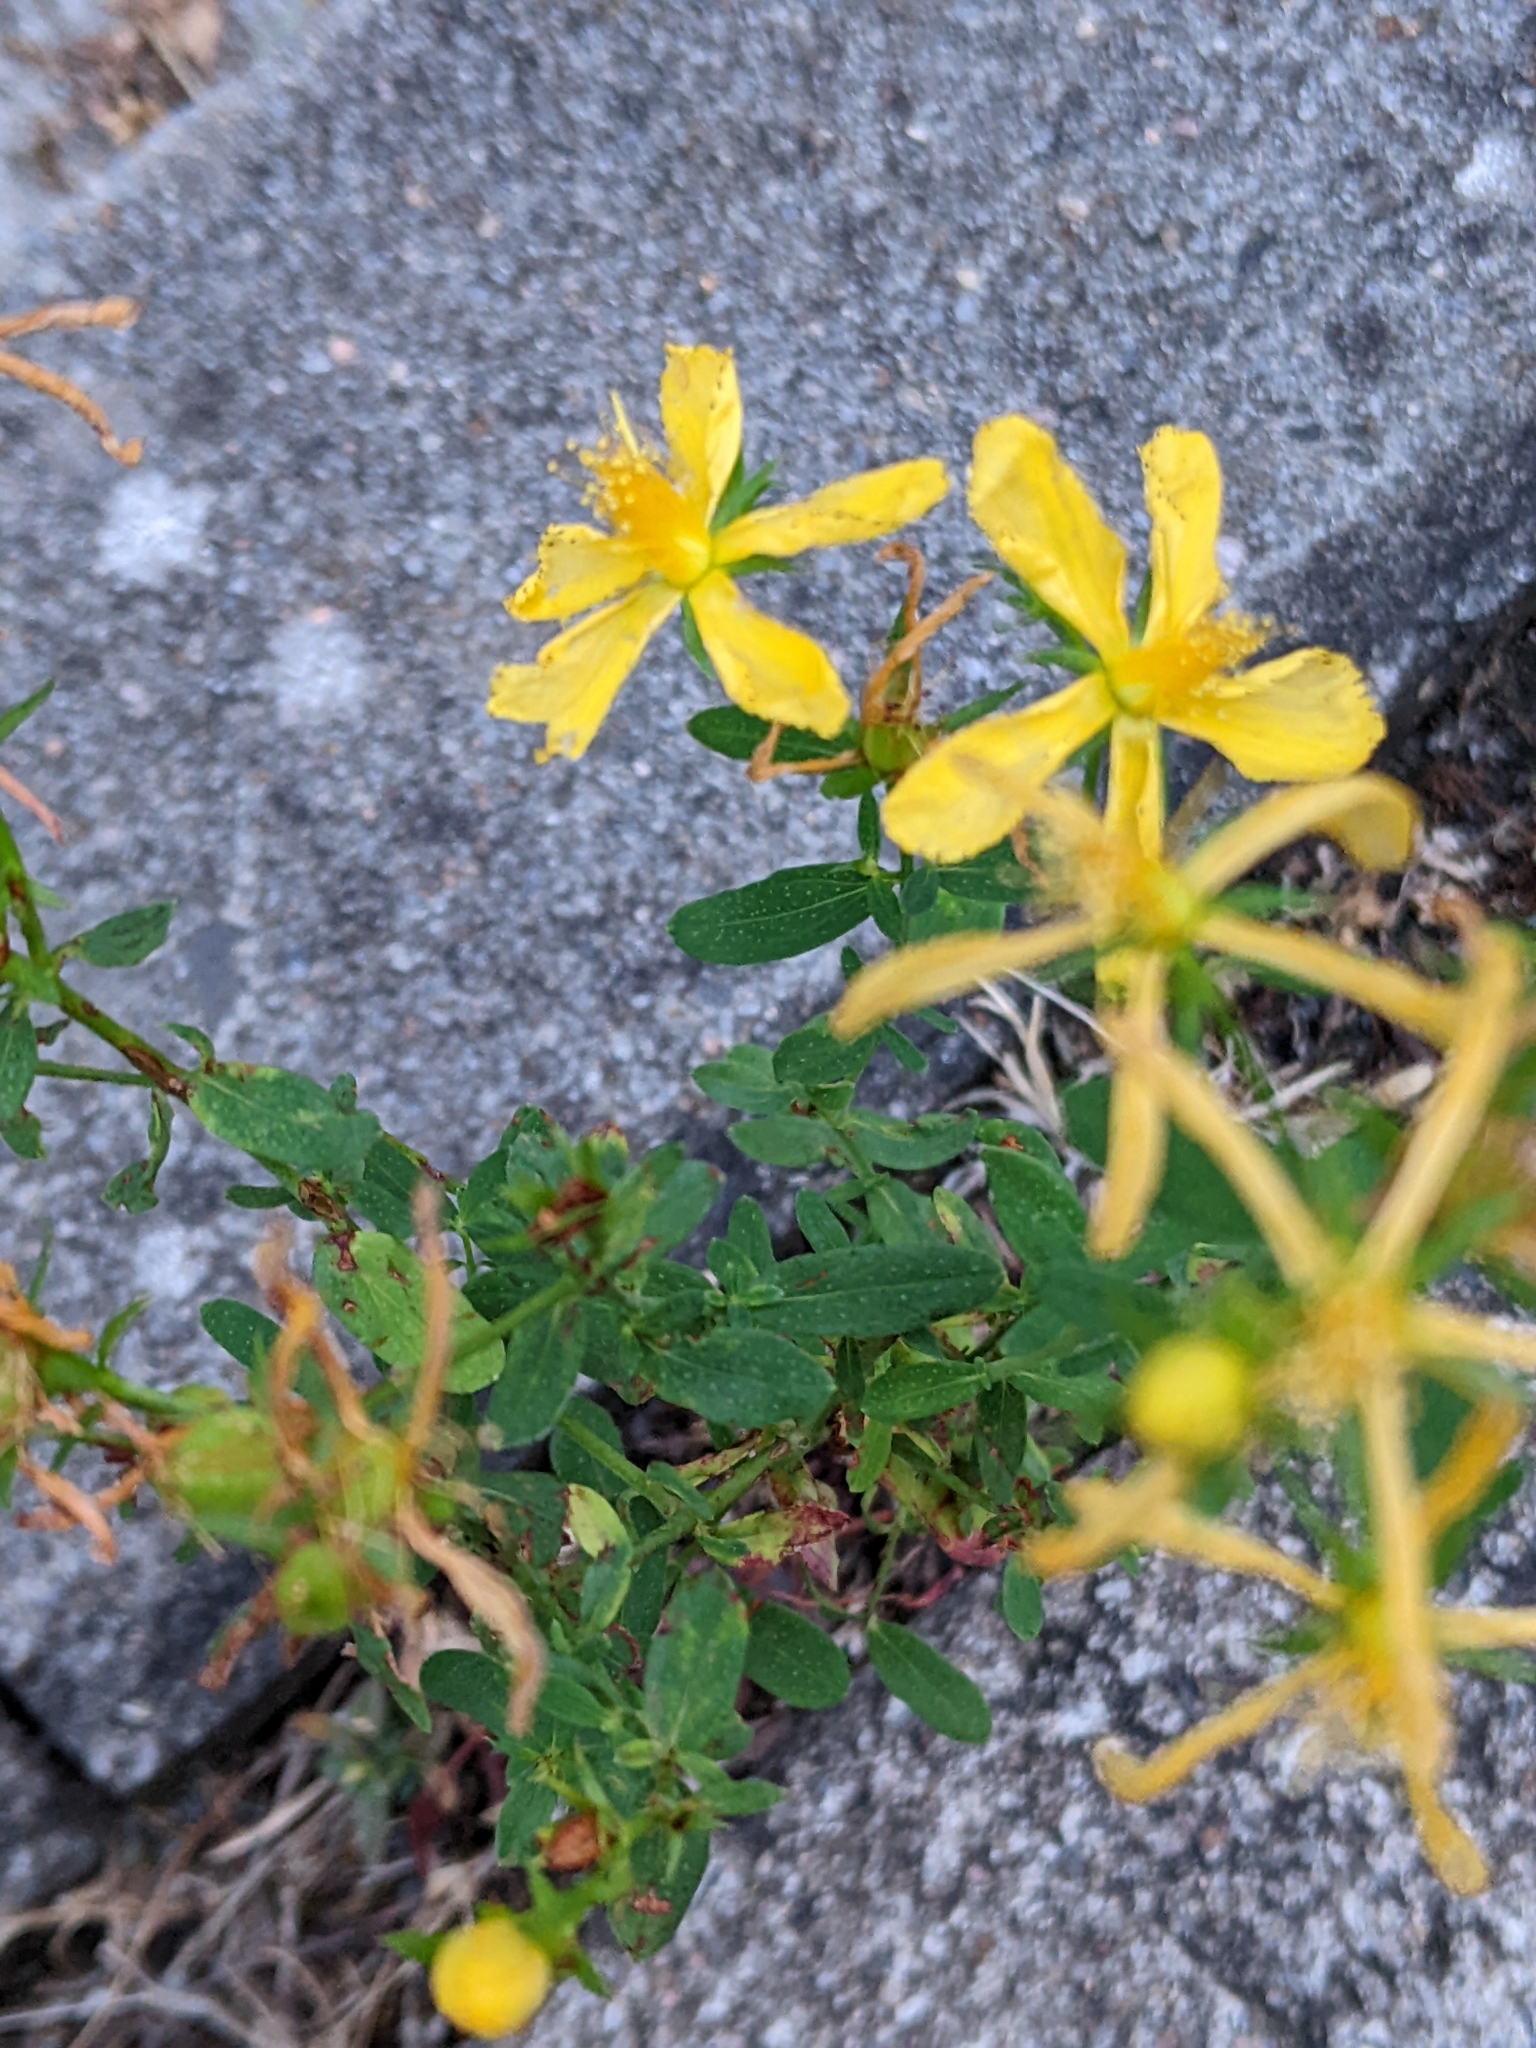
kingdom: Plantae
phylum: Tracheophyta
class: Magnoliopsida
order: Malpighiales
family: Hypericaceae
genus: Hypericum
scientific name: Hypericum perforatum
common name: Common st. johnswort
